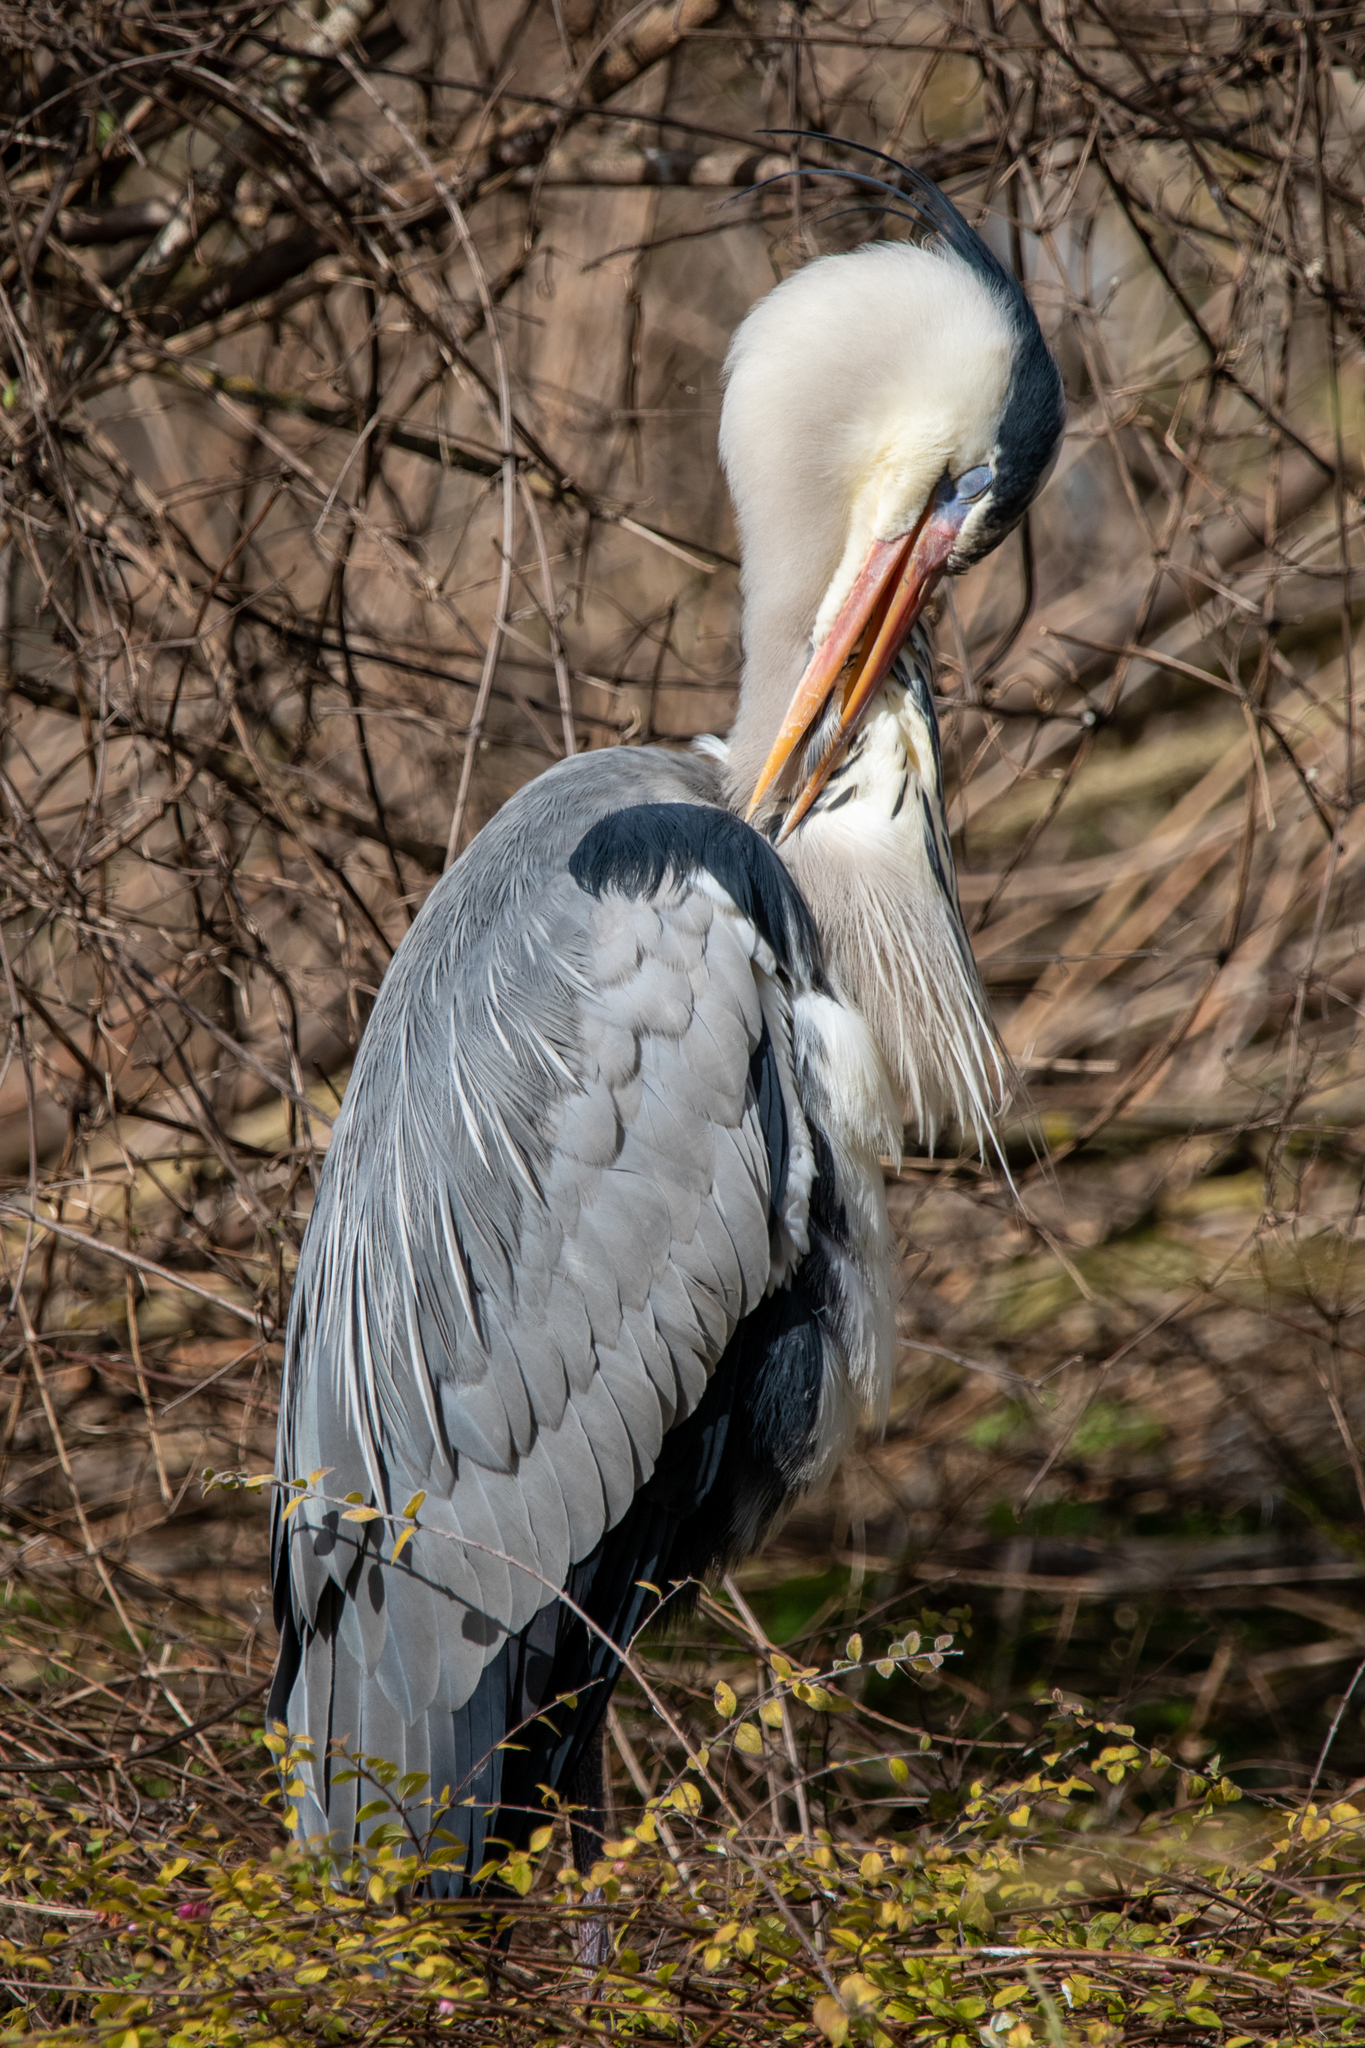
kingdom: Animalia
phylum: Chordata
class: Aves
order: Pelecaniformes
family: Ardeidae
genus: Ardea
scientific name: Ardea cinerea
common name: Grey heron
